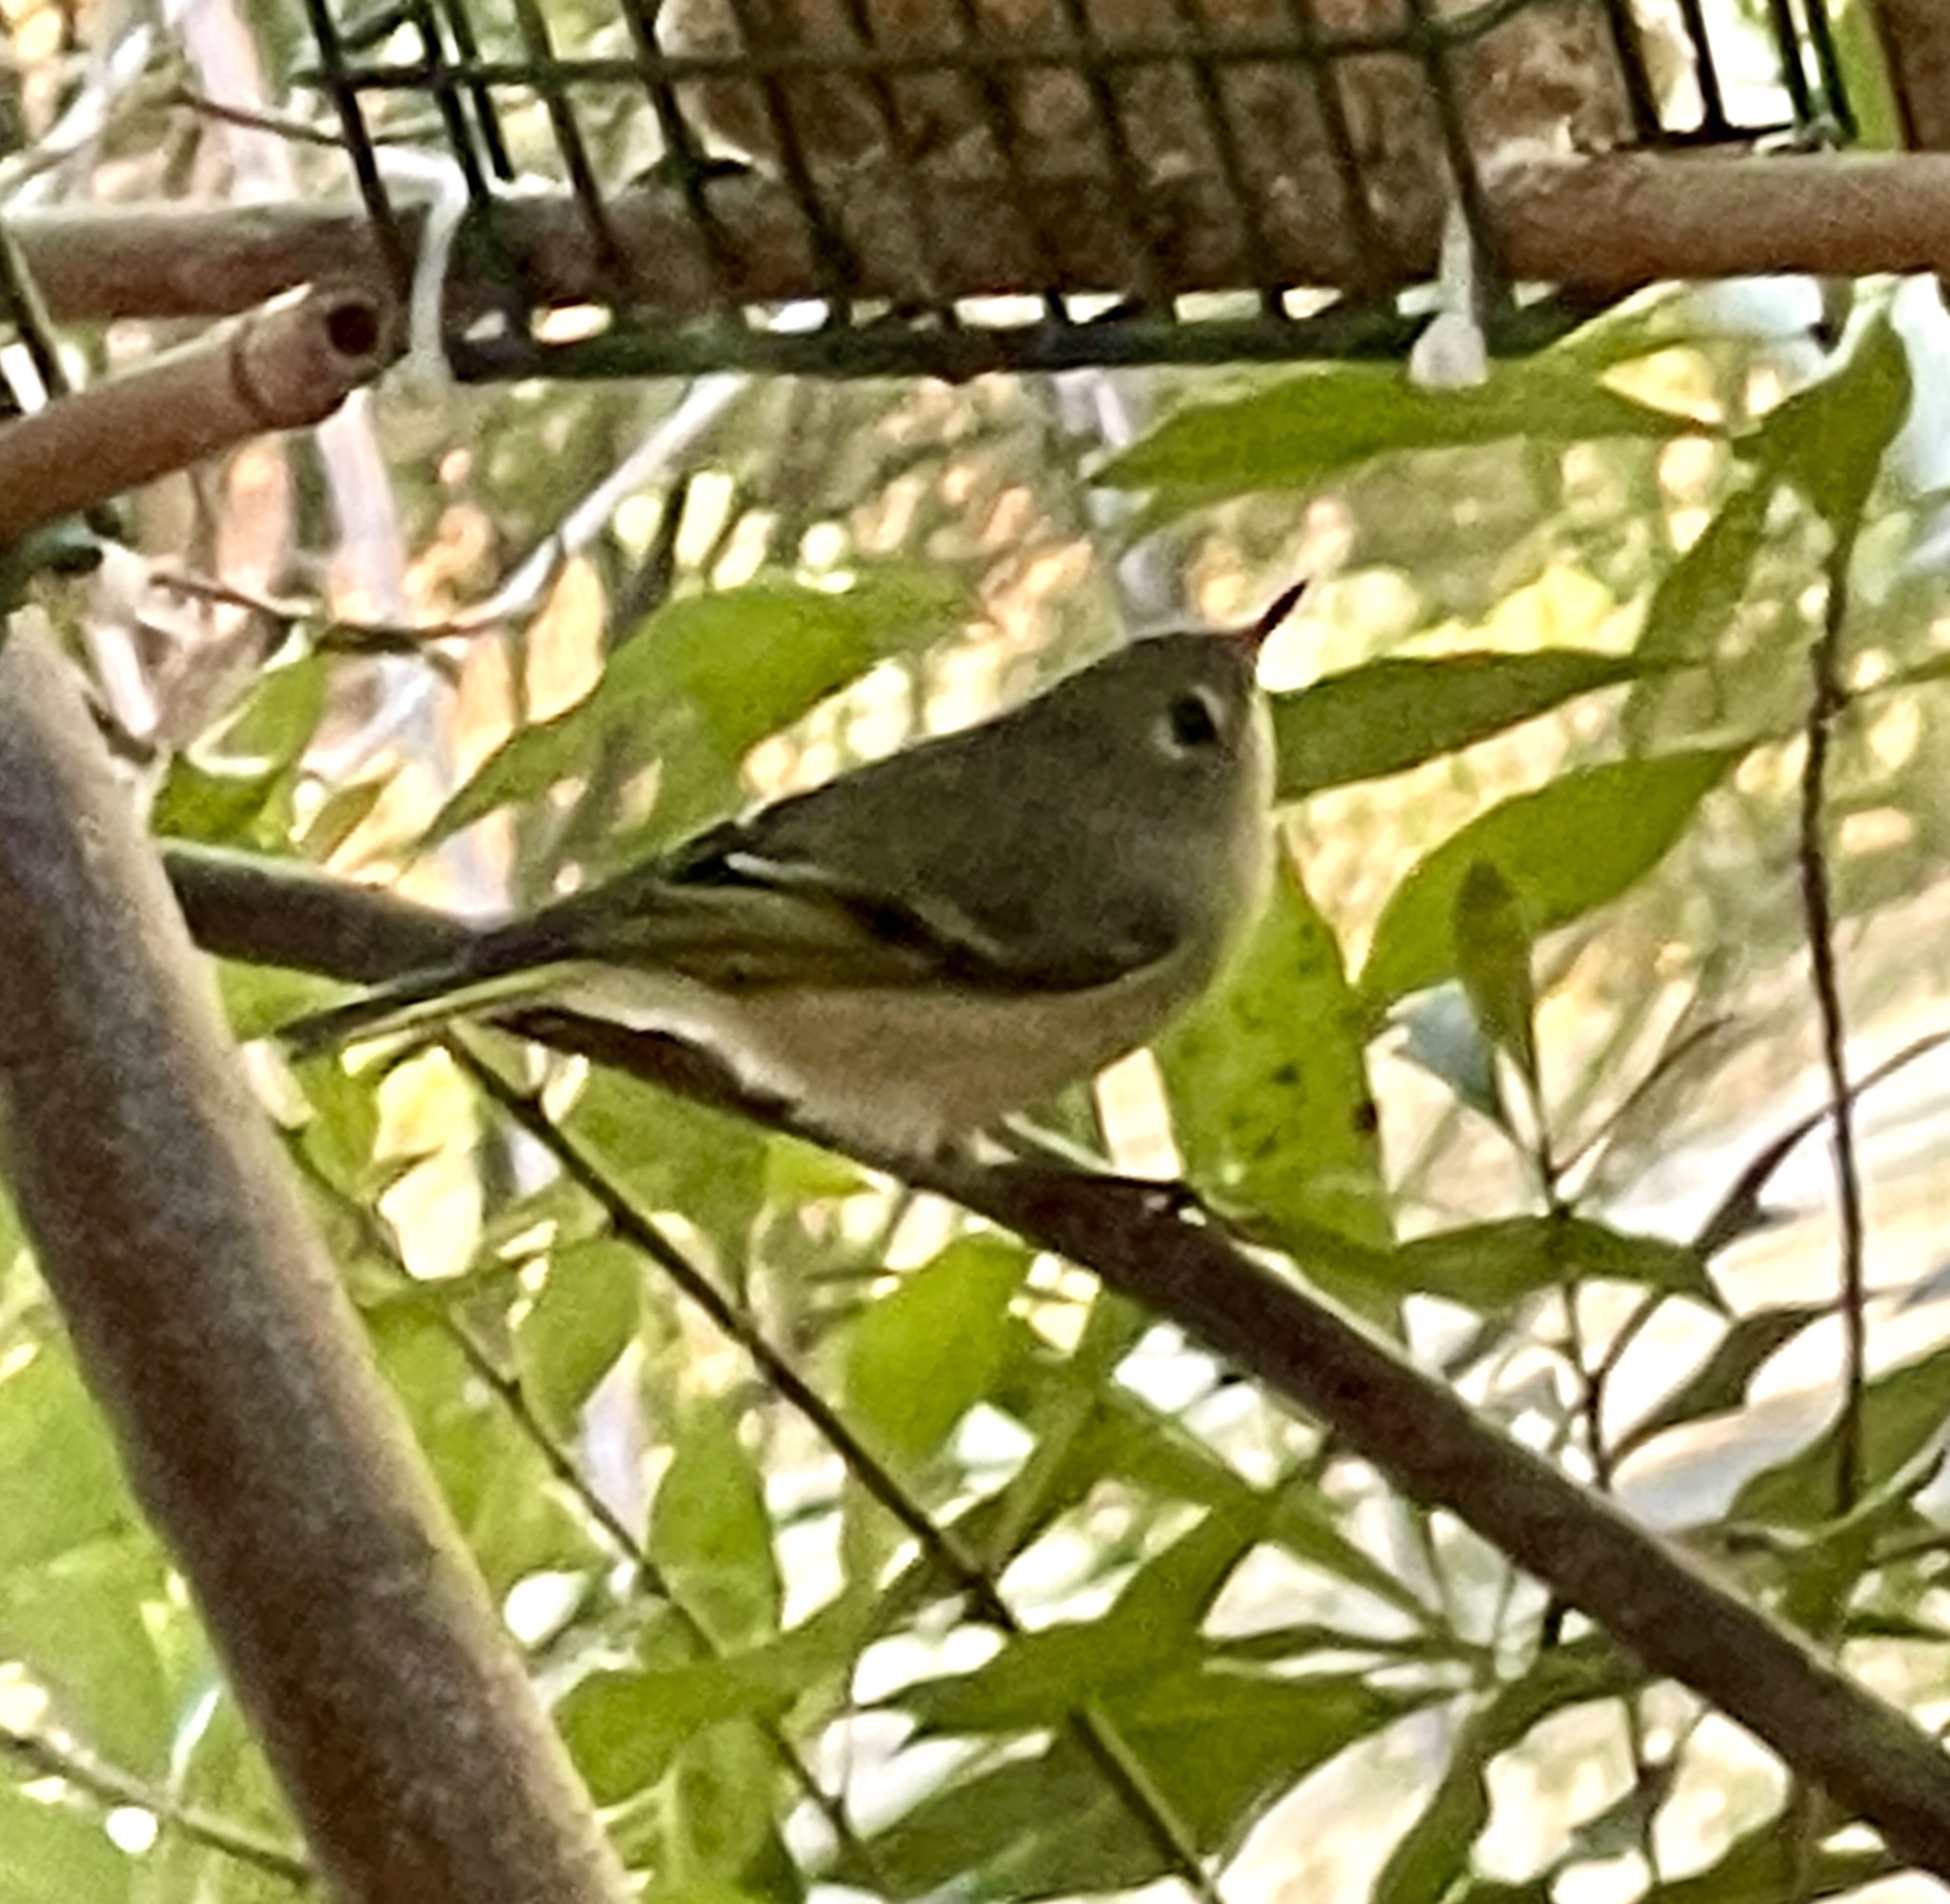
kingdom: Animalia
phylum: Chordata
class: Aves
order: Passeriformes
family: Regulidae
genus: Regulus
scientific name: Regulus calendula
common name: Ruby-crowned kinglet
